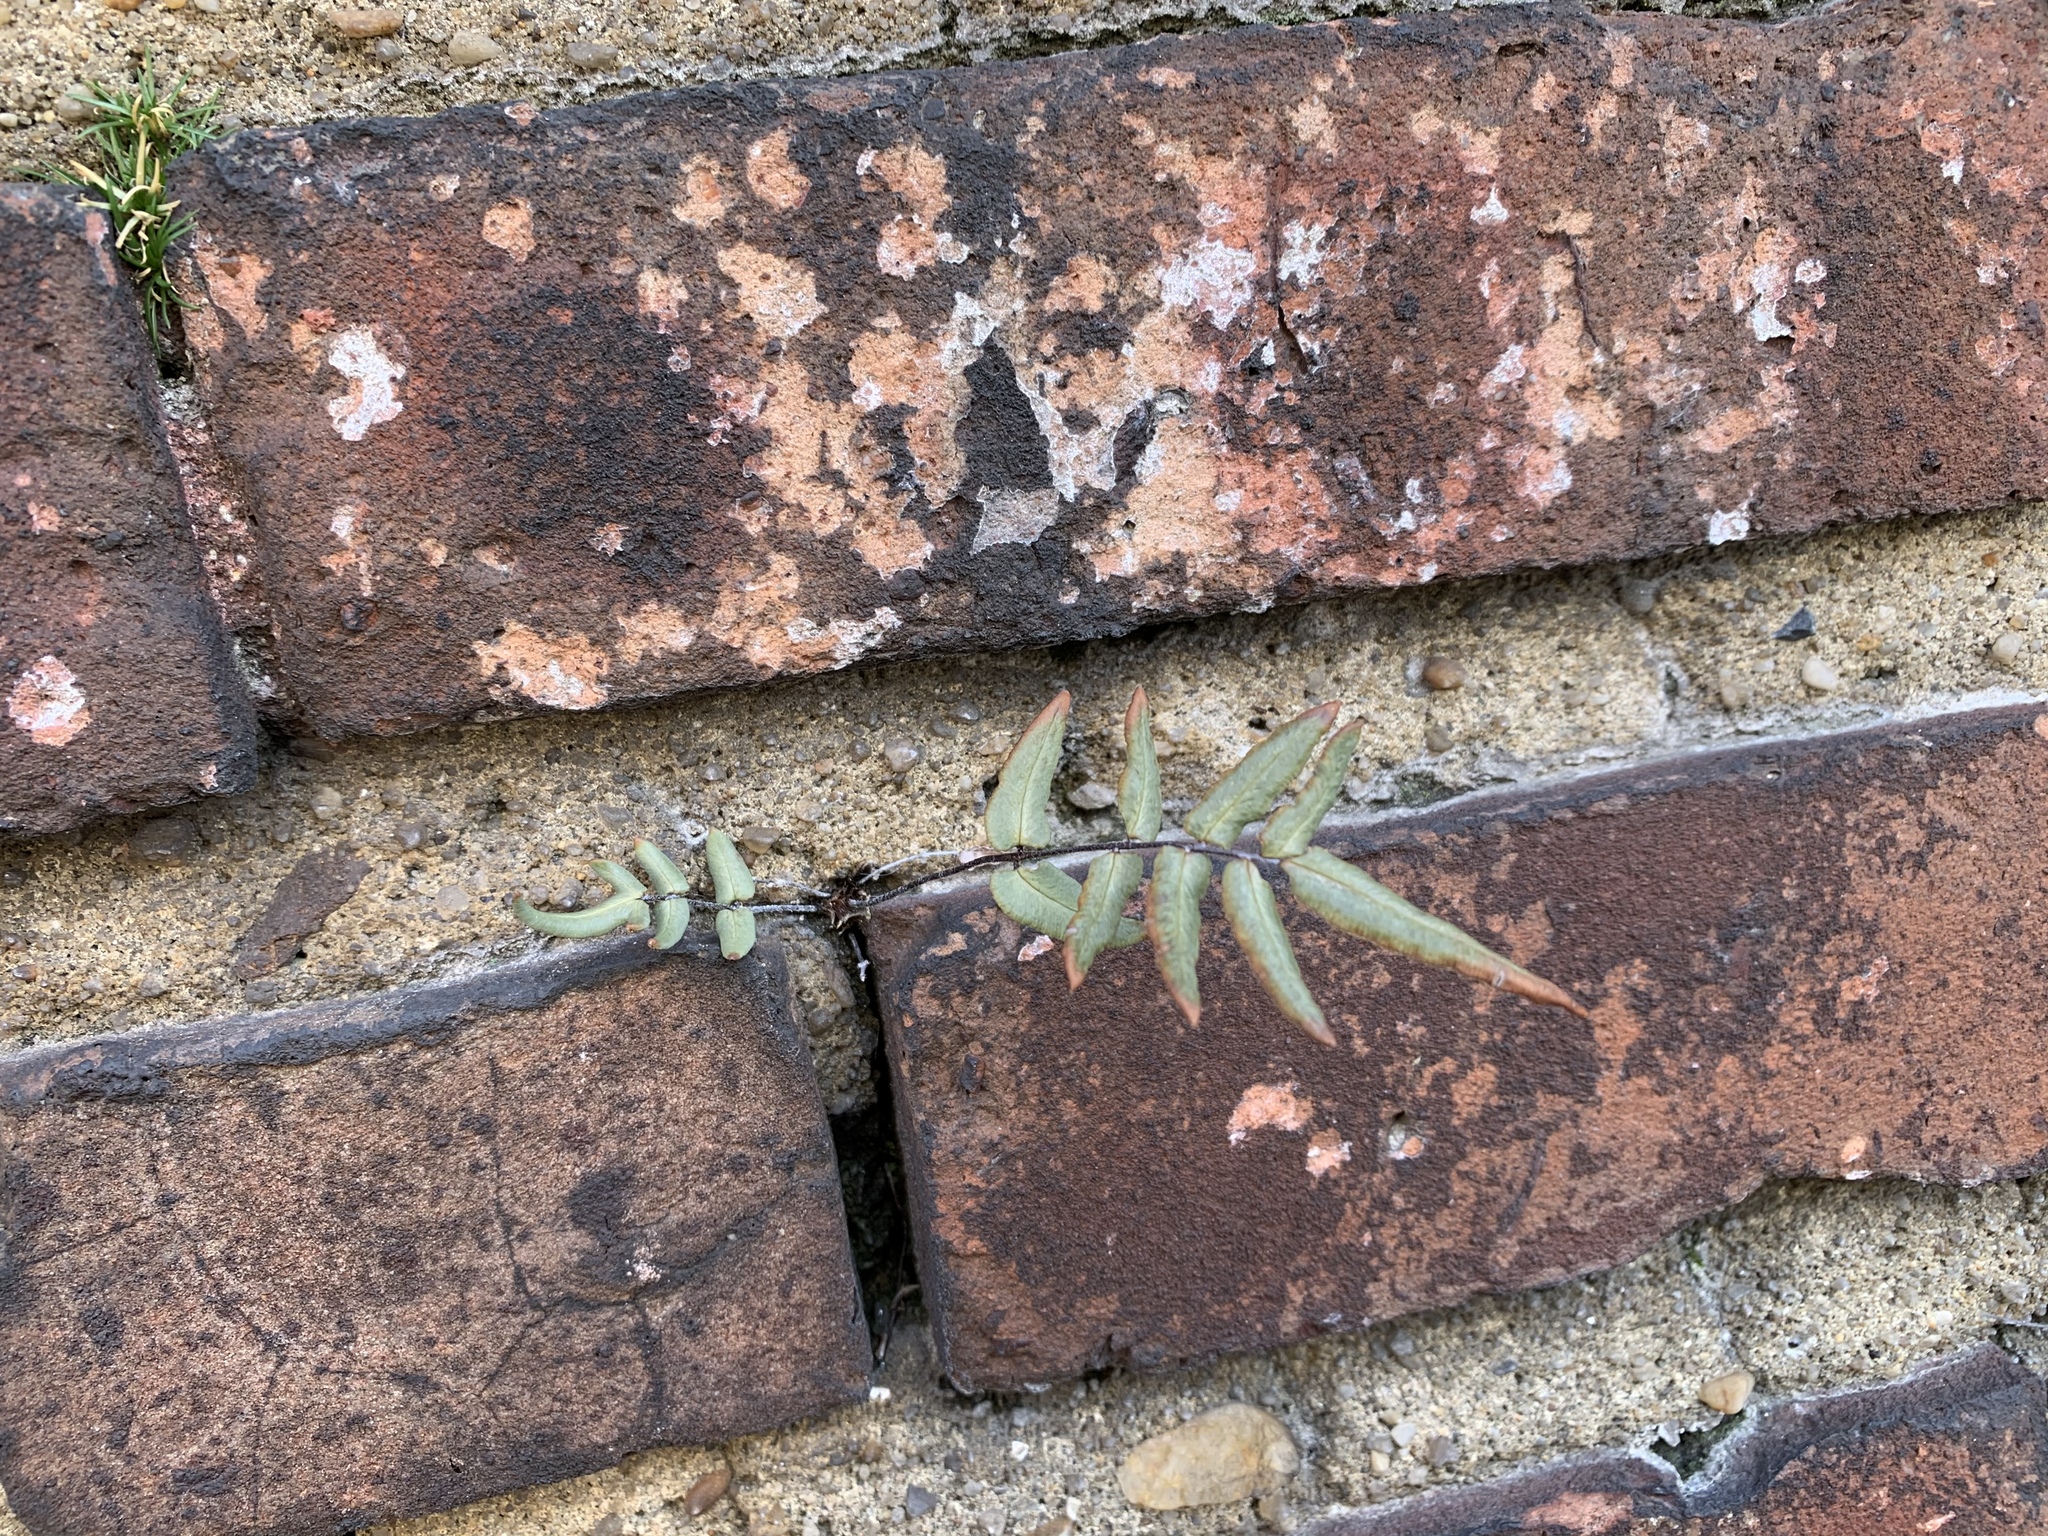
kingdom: Plantae
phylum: Tracheophyta
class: Polypodiopsida
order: Polypodiales
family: Pteridaceae
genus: Pellaea
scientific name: Pellaea atropurpurea
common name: Hairy cliffbrake
